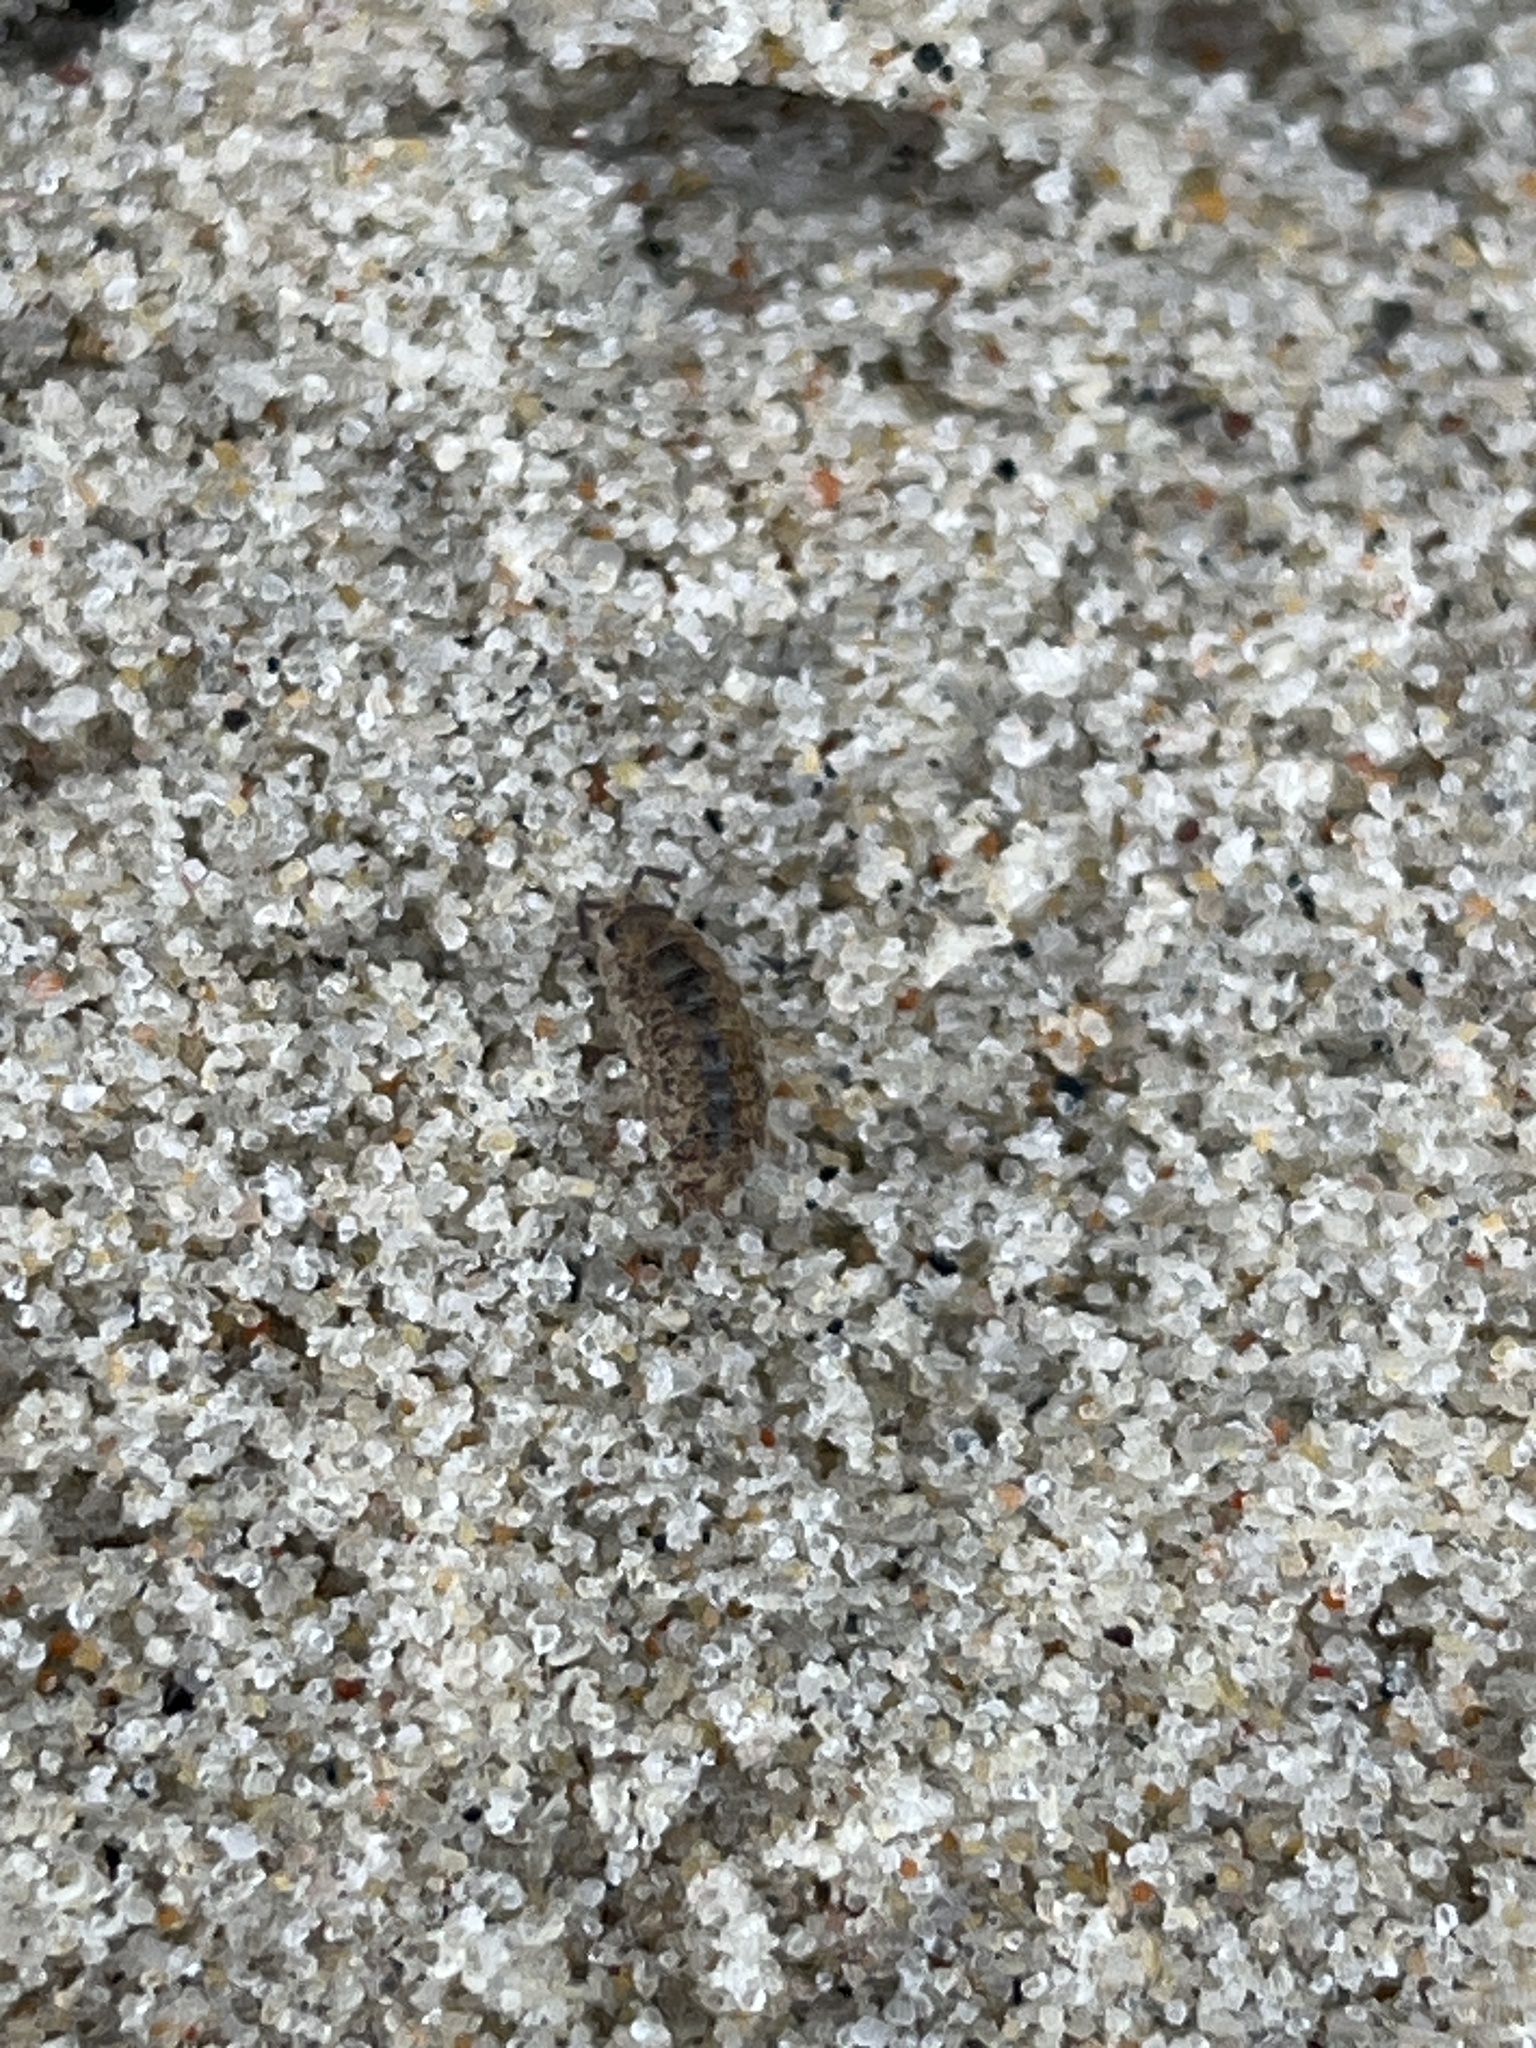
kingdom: Animalia
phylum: Arthropoda
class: Malacostraca
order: Isopoda
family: Porcellionidae
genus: Porcellio
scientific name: Porcellio scaber
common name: Common rough woodlouse
